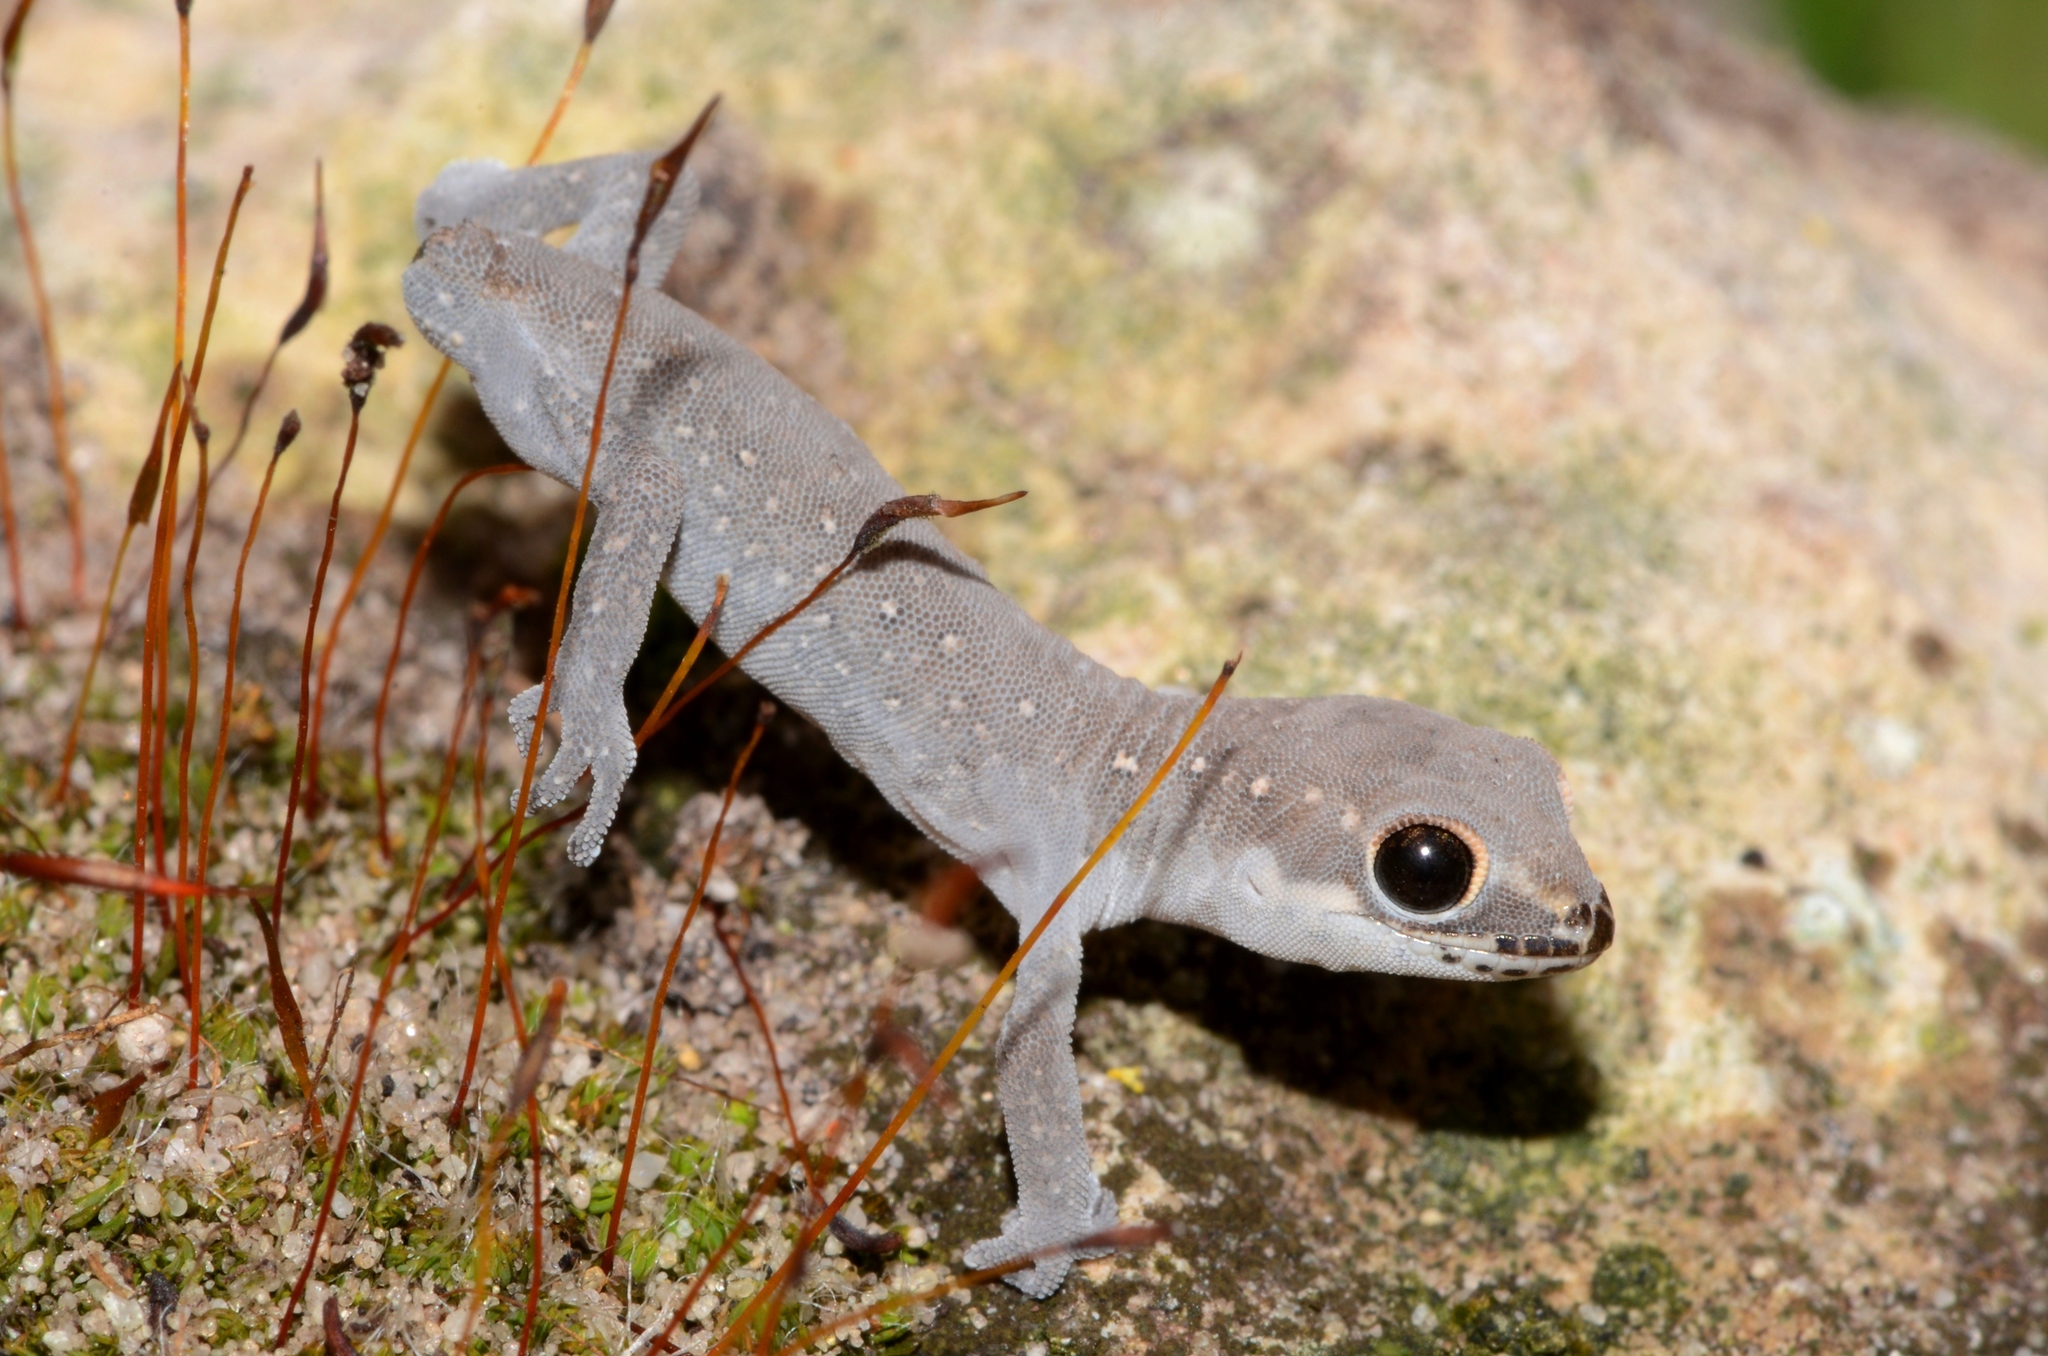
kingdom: Animalia
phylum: Chordata
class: Squamata
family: Gekkonidae
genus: Pachydactylus
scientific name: Pachydactylus geitje
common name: Ocellated thick-toed gecko
